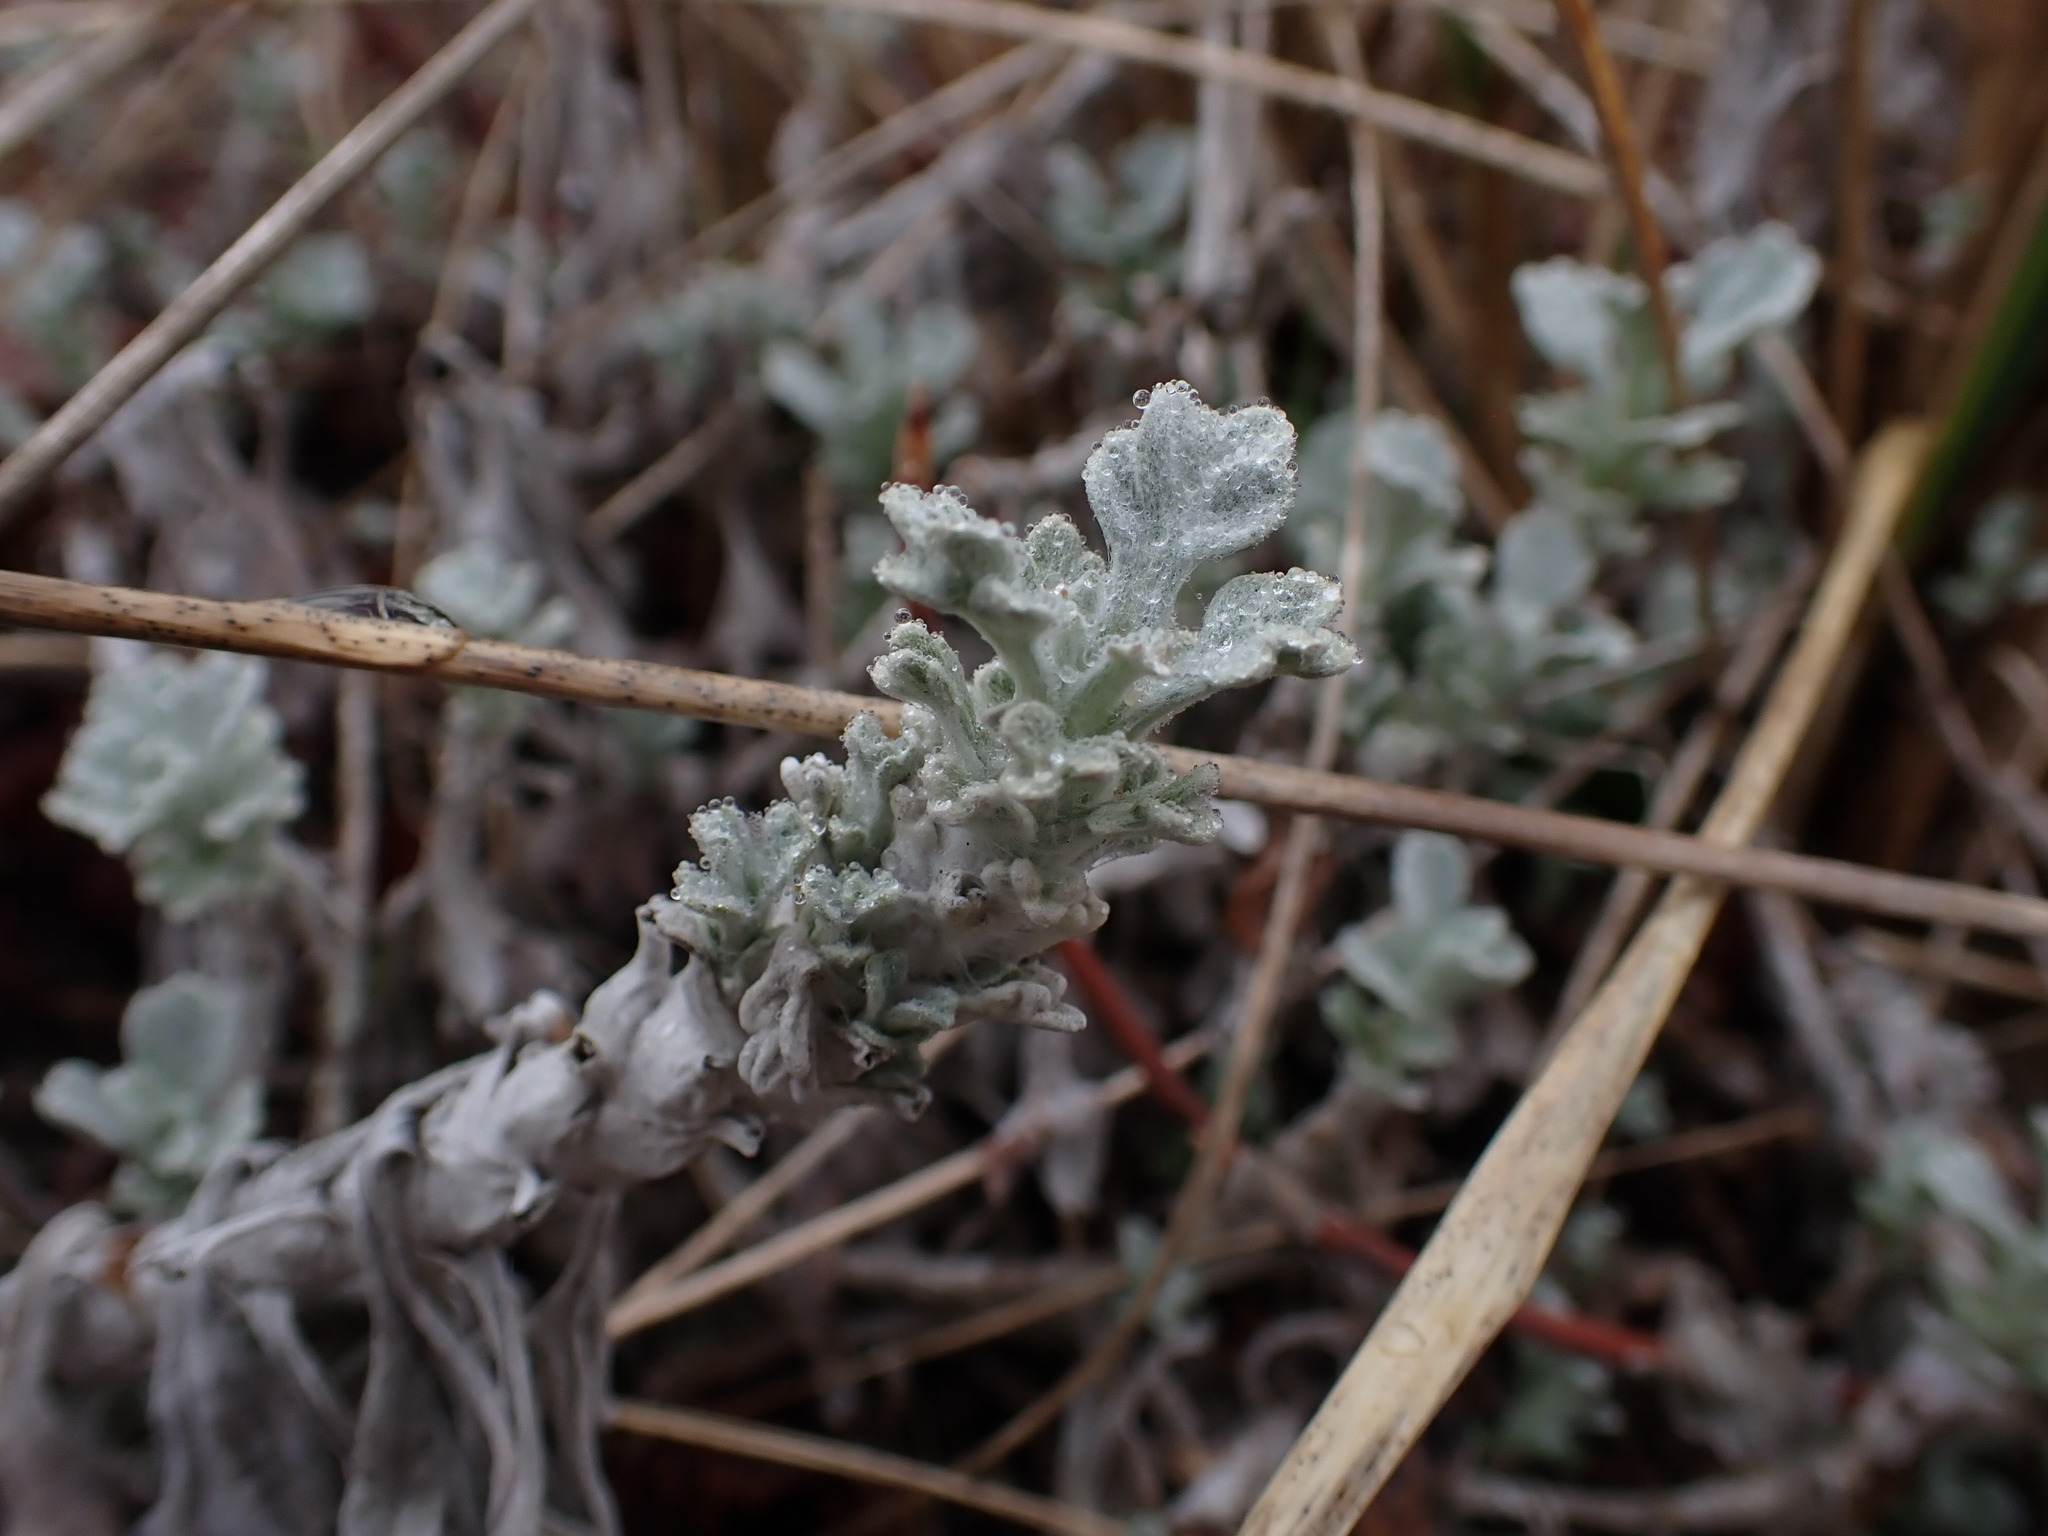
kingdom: Plantae
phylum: Tracheophyta
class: Magnoliopsida
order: Asterales
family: Asteraceae
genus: Artemisia
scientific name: Artemisia stelleriana
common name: Beach wormwood
